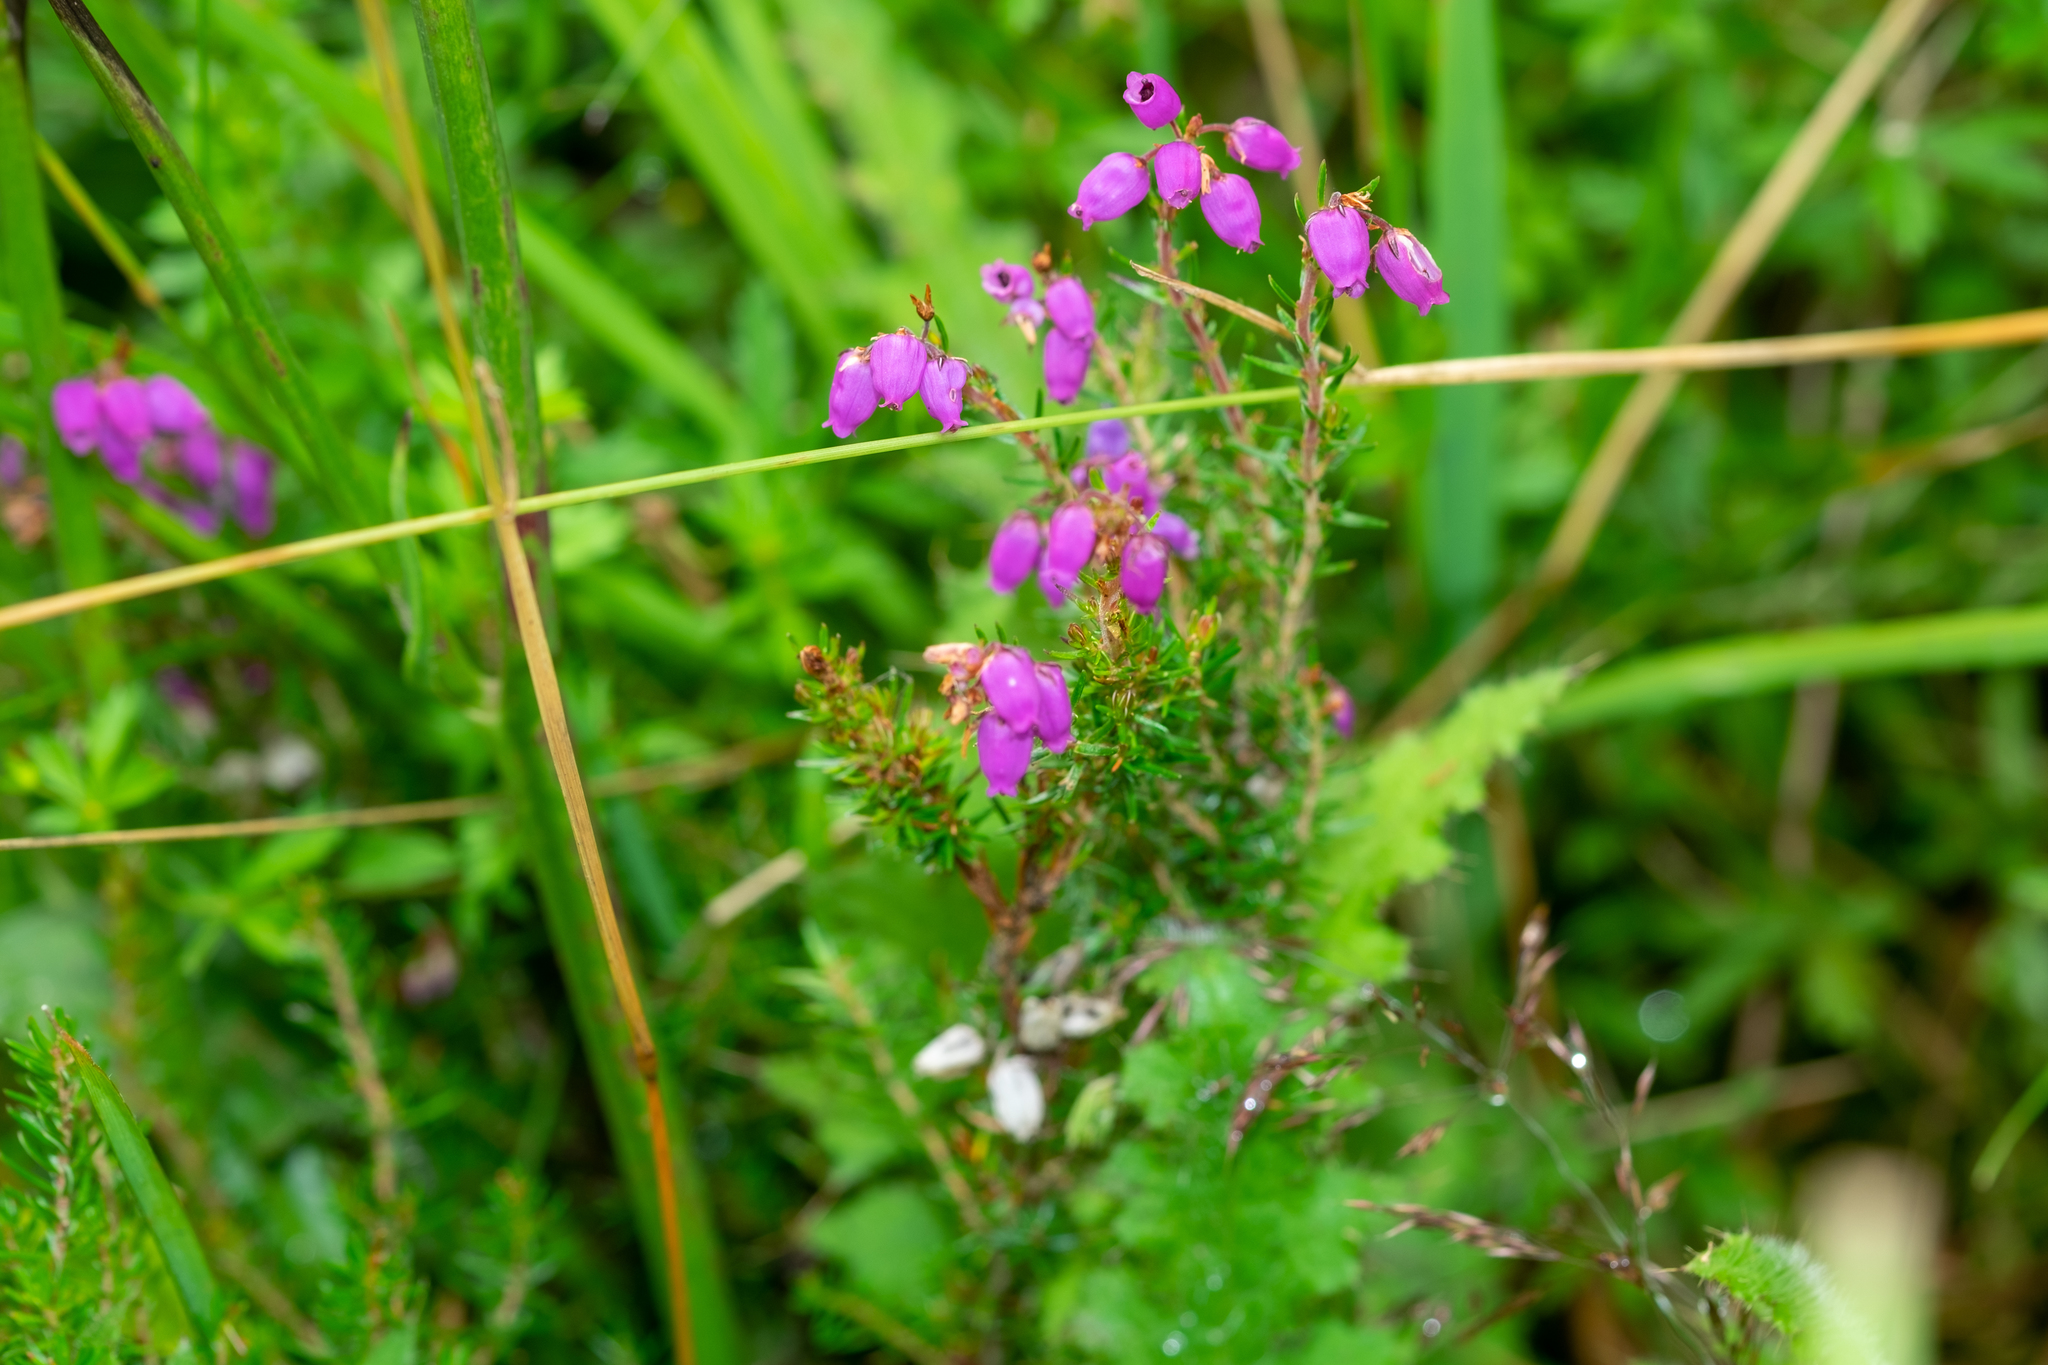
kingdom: Plantae
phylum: Tracheophyta
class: Magnoliopsida
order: Ericales
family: Ericaceae
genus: Erica
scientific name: Erica cinerea
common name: Bell heather
